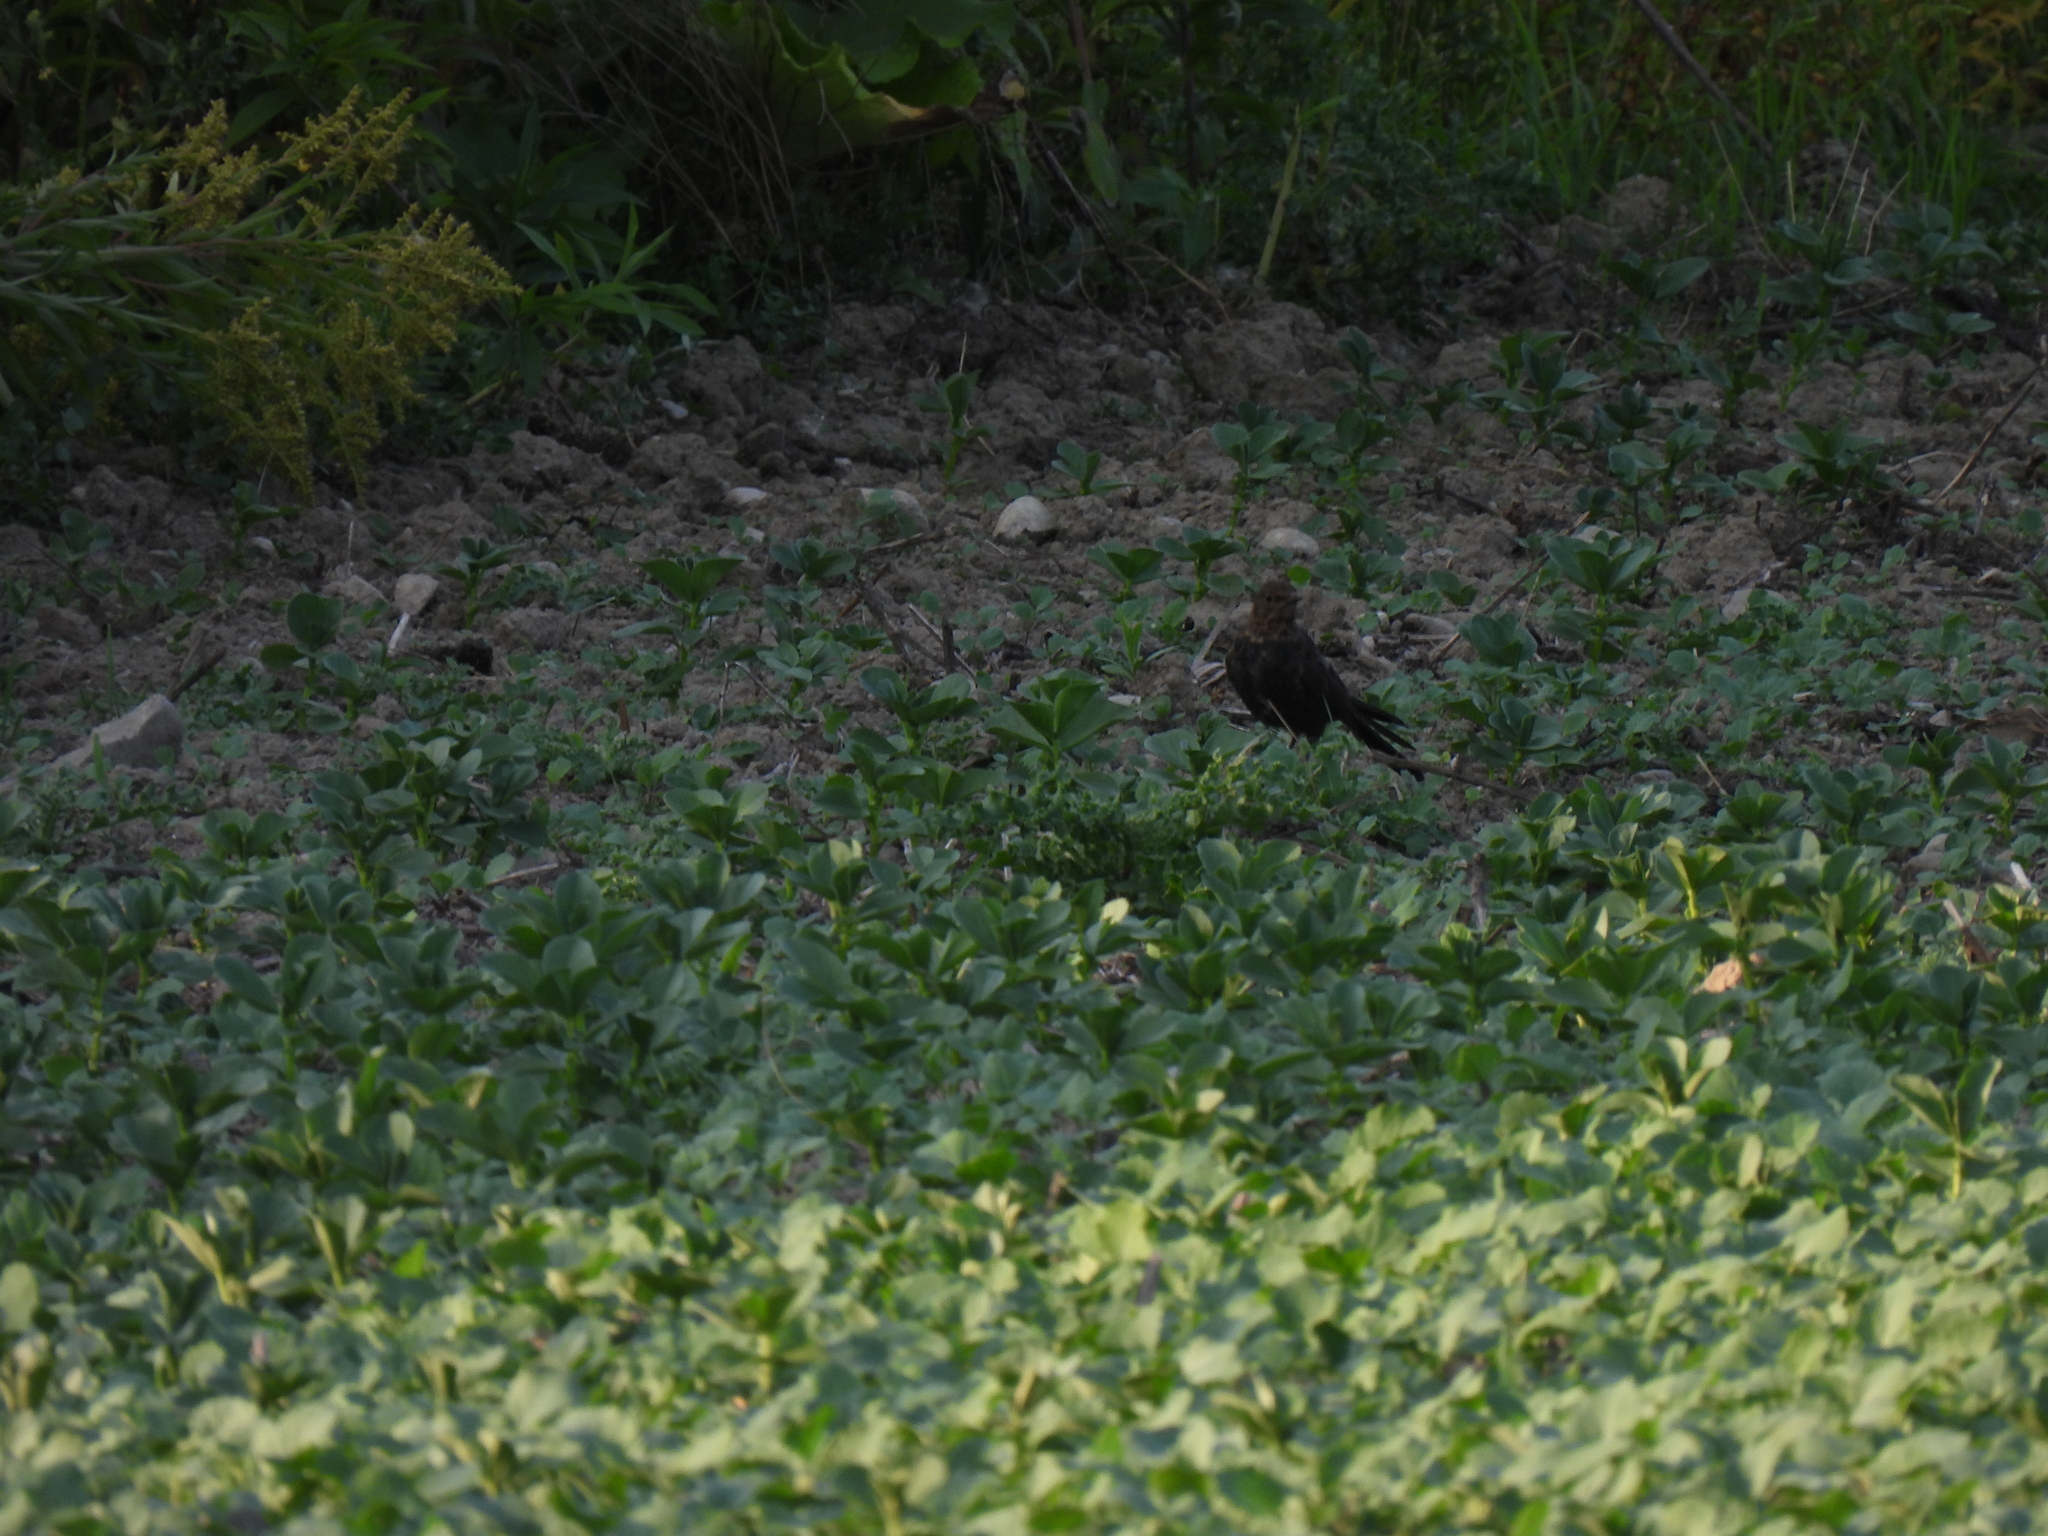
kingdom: Animalia
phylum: Chordata
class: Aves
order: Passeriformes
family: Turdidae
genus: Turdus
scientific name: Turdus merula
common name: Common blackbird
